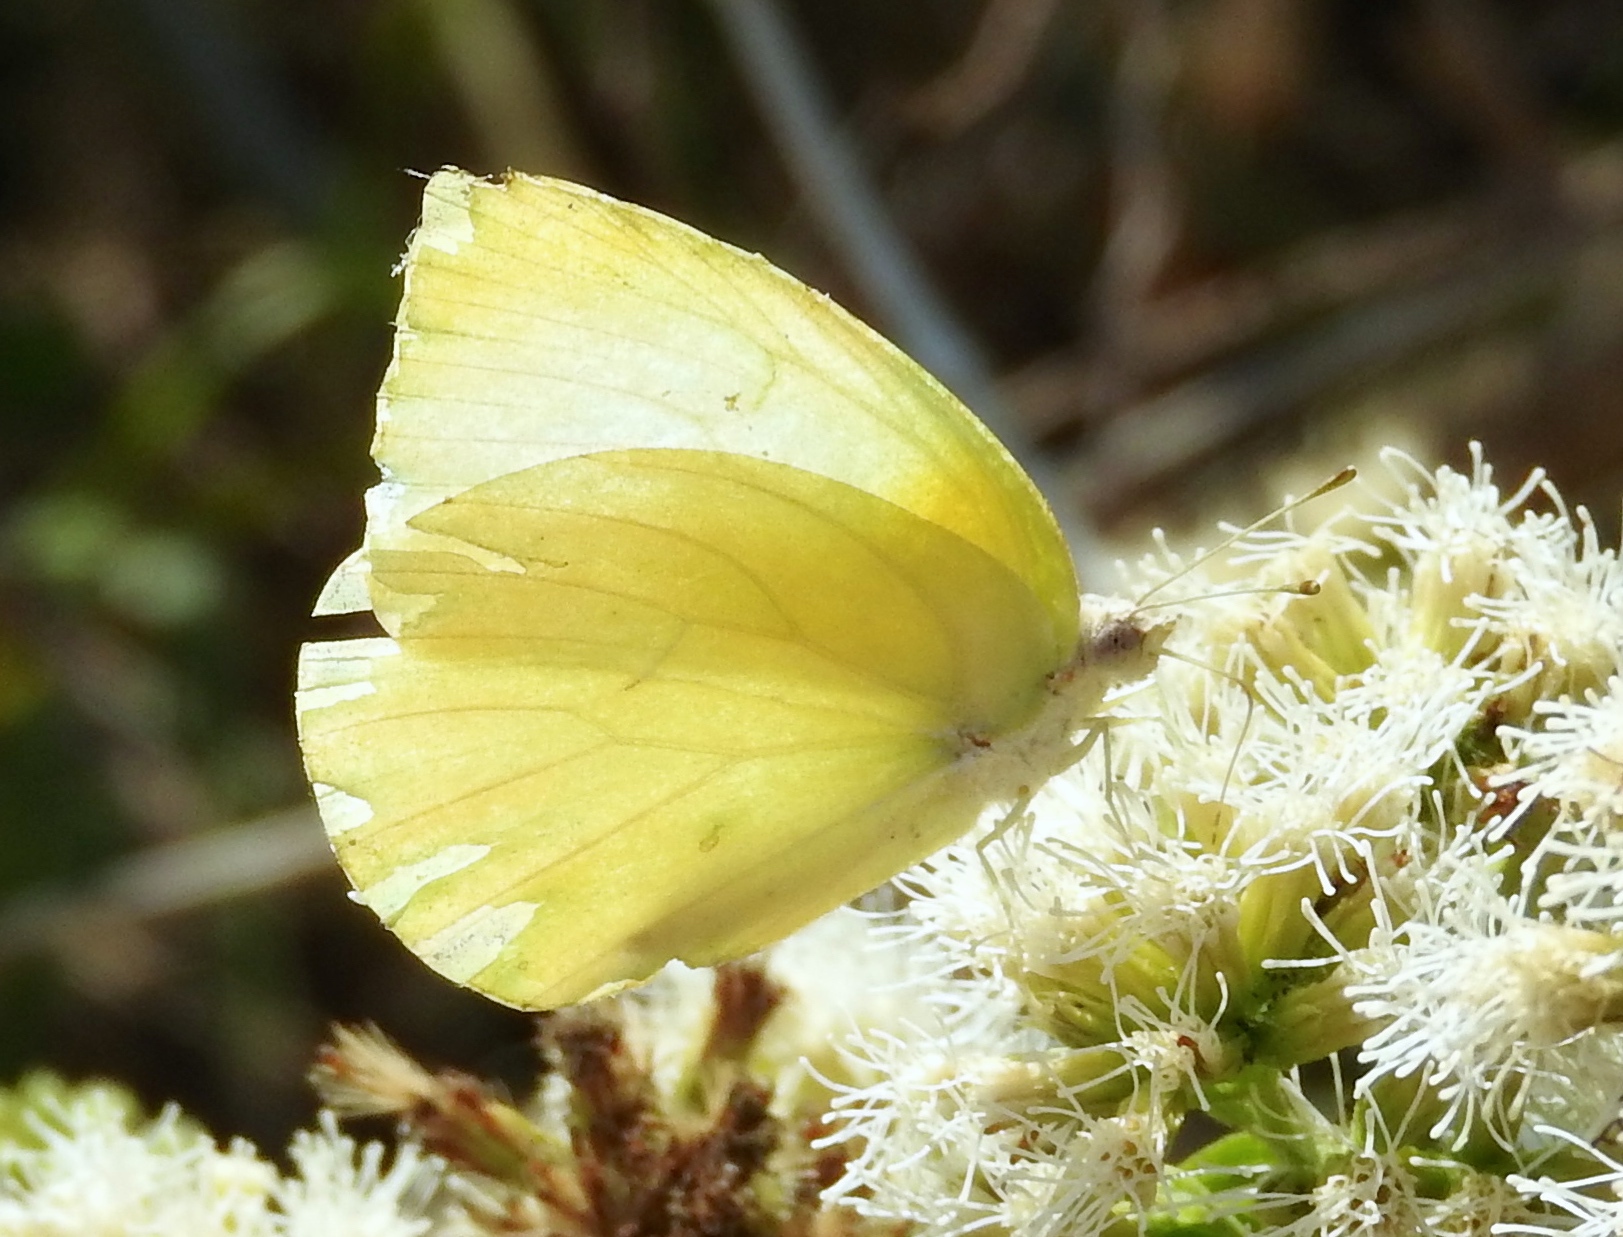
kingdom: Animalia
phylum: Arthropoda
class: Insecta
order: Lepidoptera
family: Pieridae
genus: Kricogonia
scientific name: Kricogonia lyside
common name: Guayacan sulphur,
